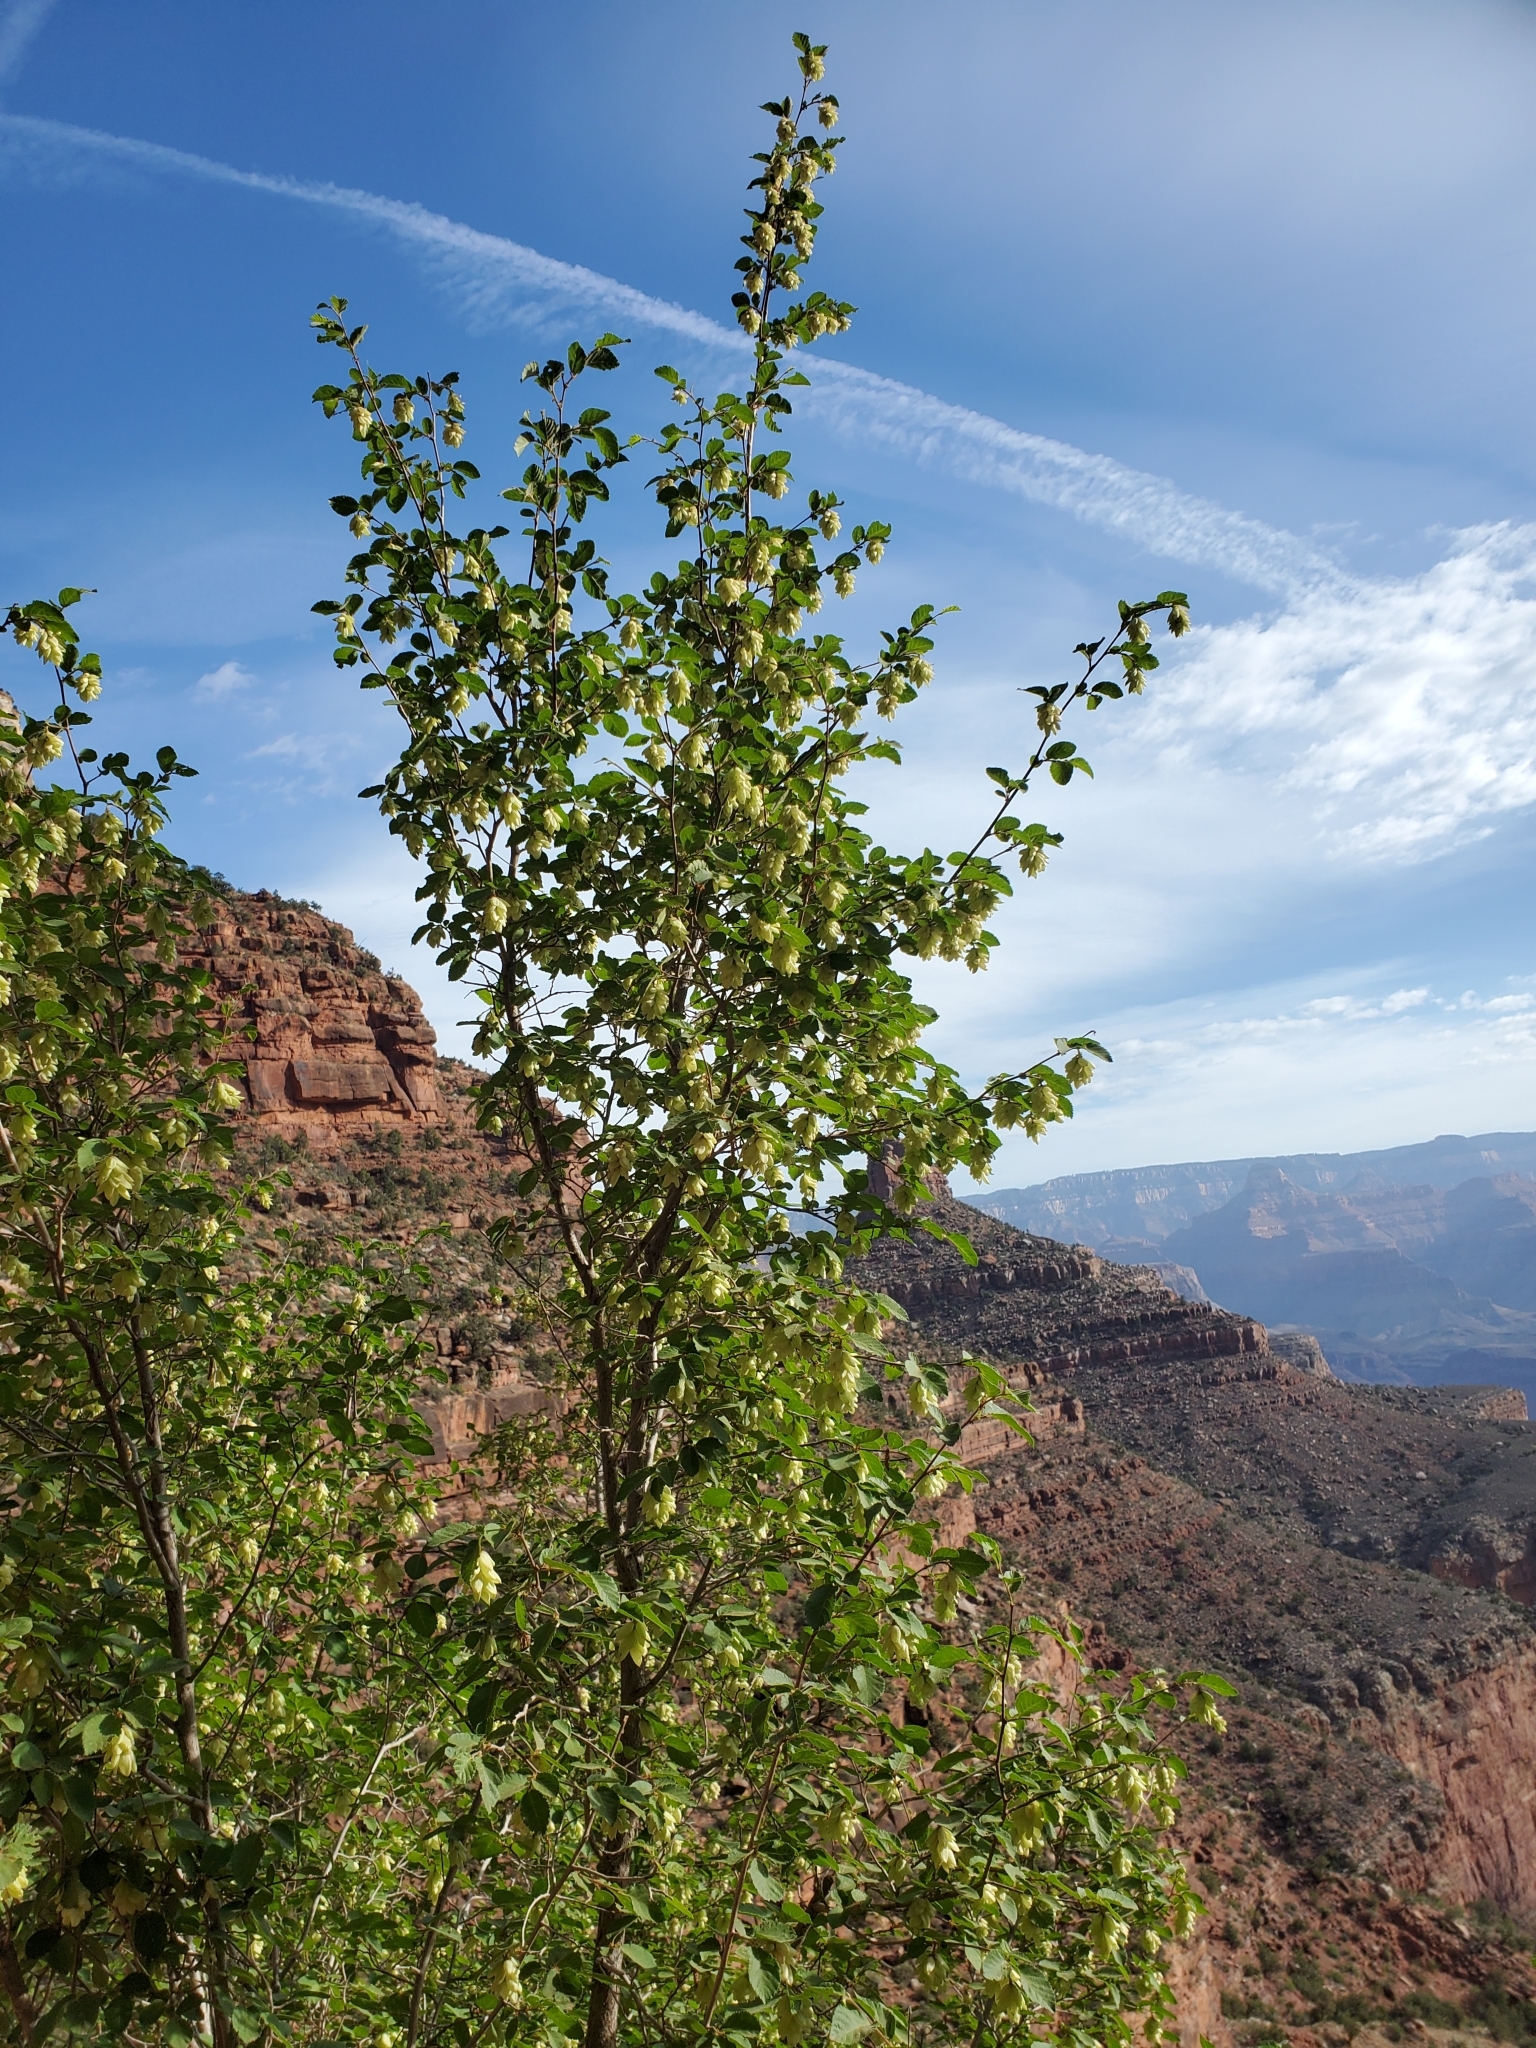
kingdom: Plantae
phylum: Tracheophyta
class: Magnoliopsida
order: Fagales
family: Betulaceae
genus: Ostrya
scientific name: Ostrya knowltonii
